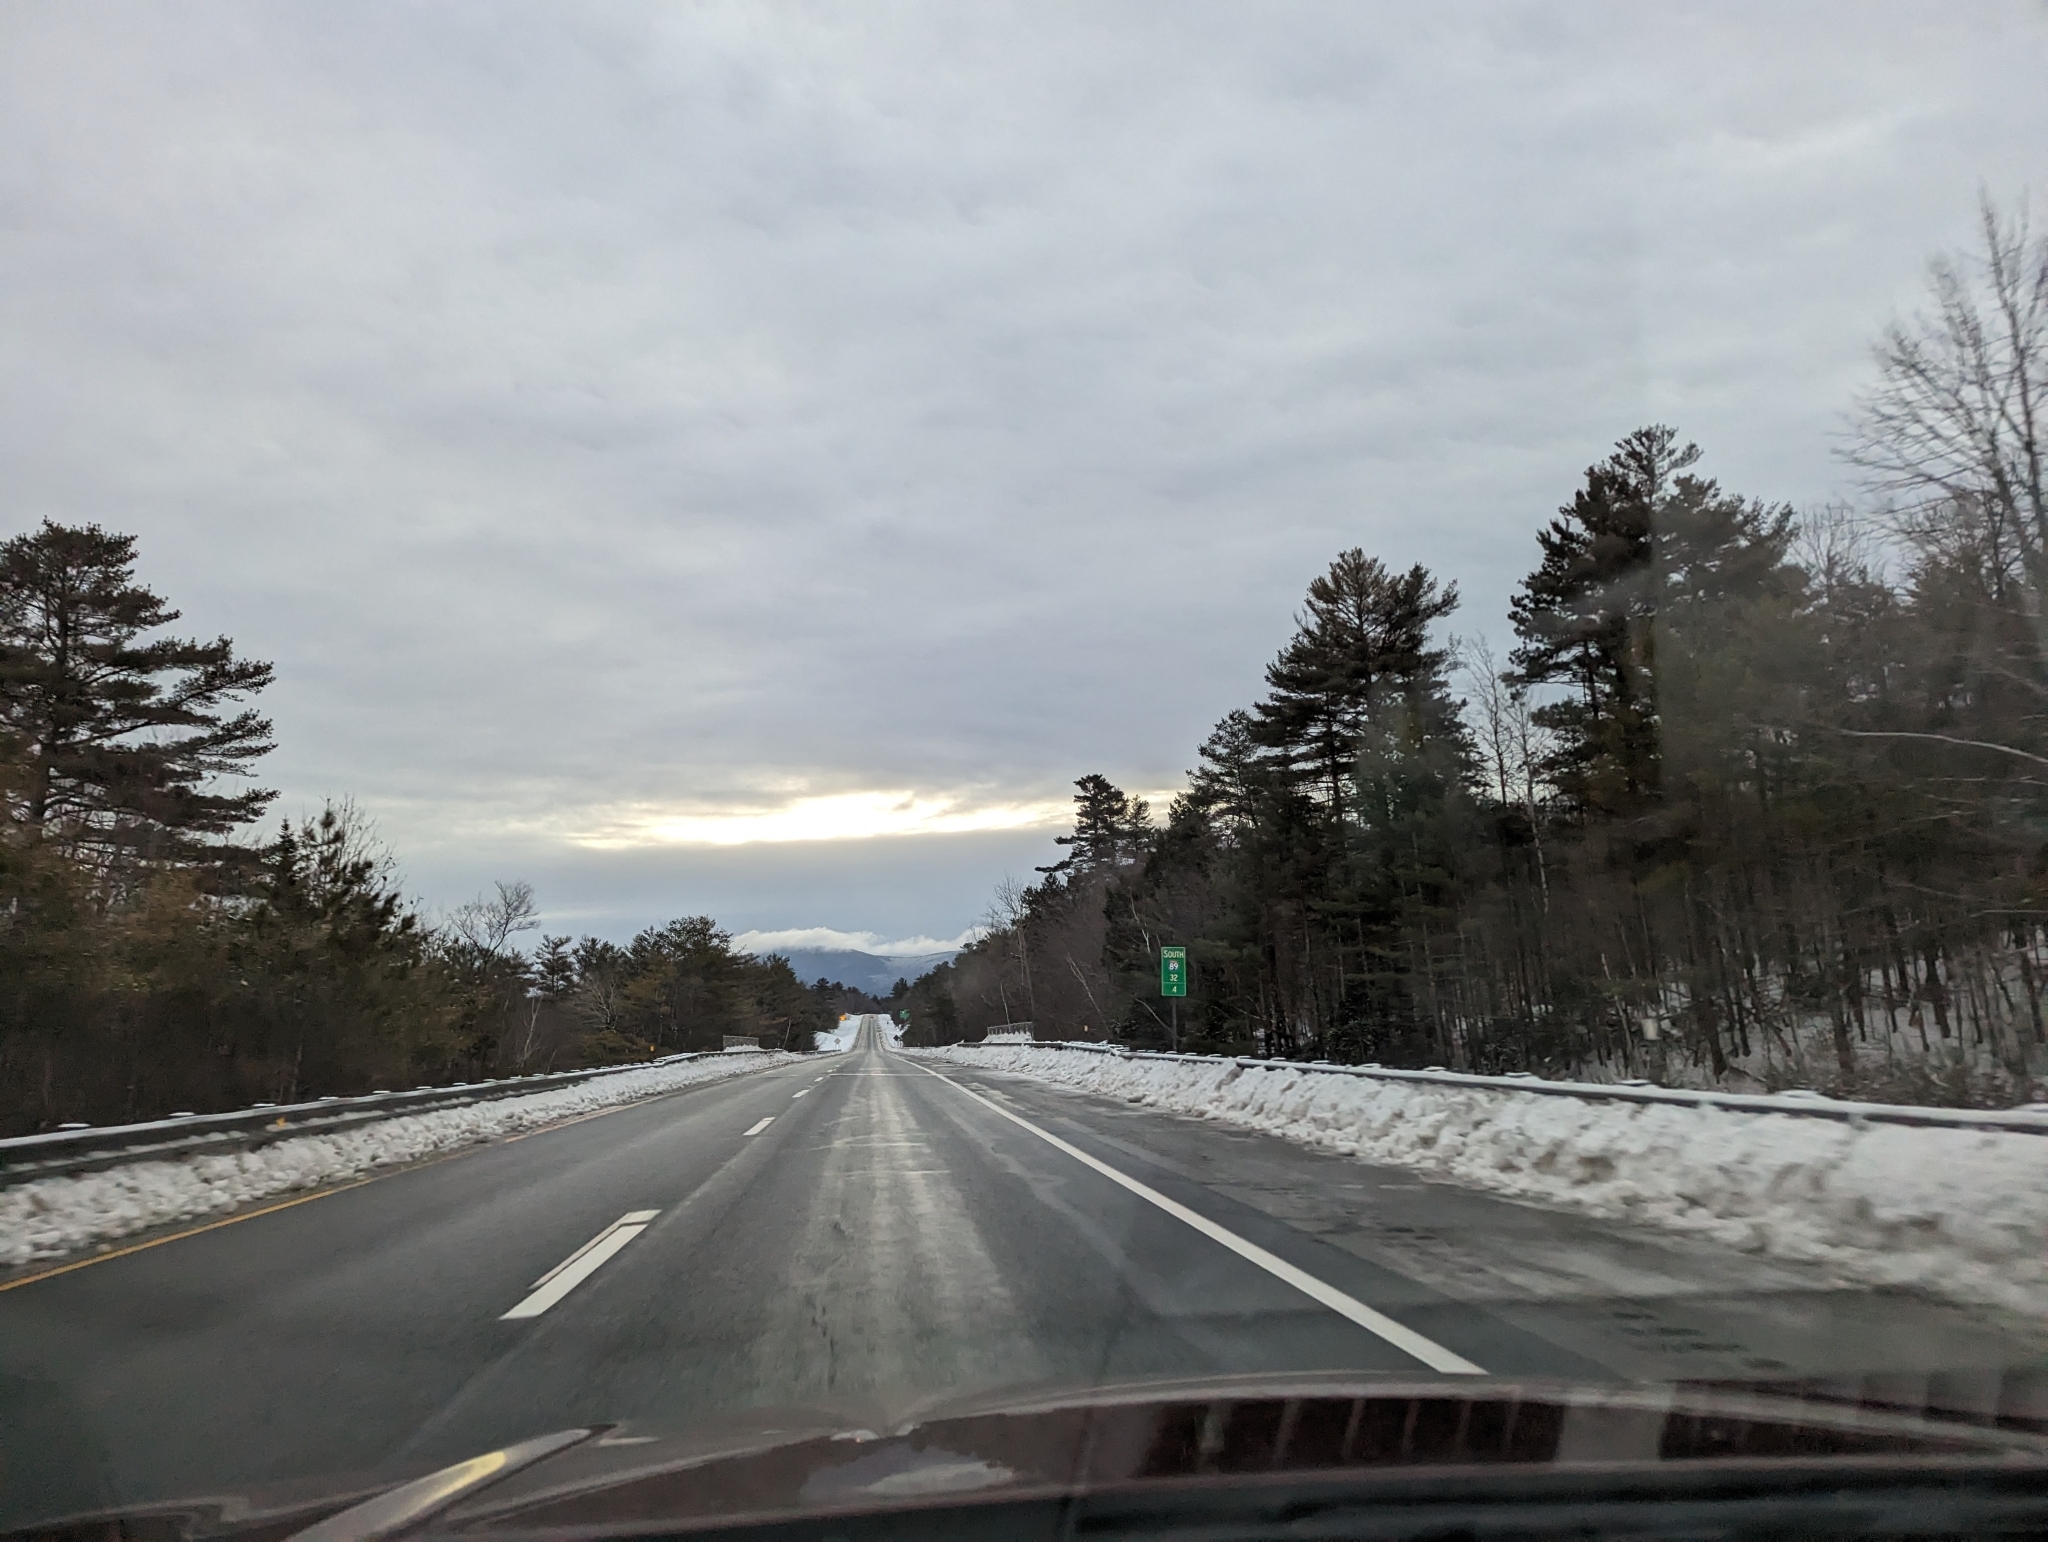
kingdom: Plantae
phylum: Tracheophyta
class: Pinopsida
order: Pinales
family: Pinaceae
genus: Pinus
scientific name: Pinus strobus
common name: Weymouth pine
